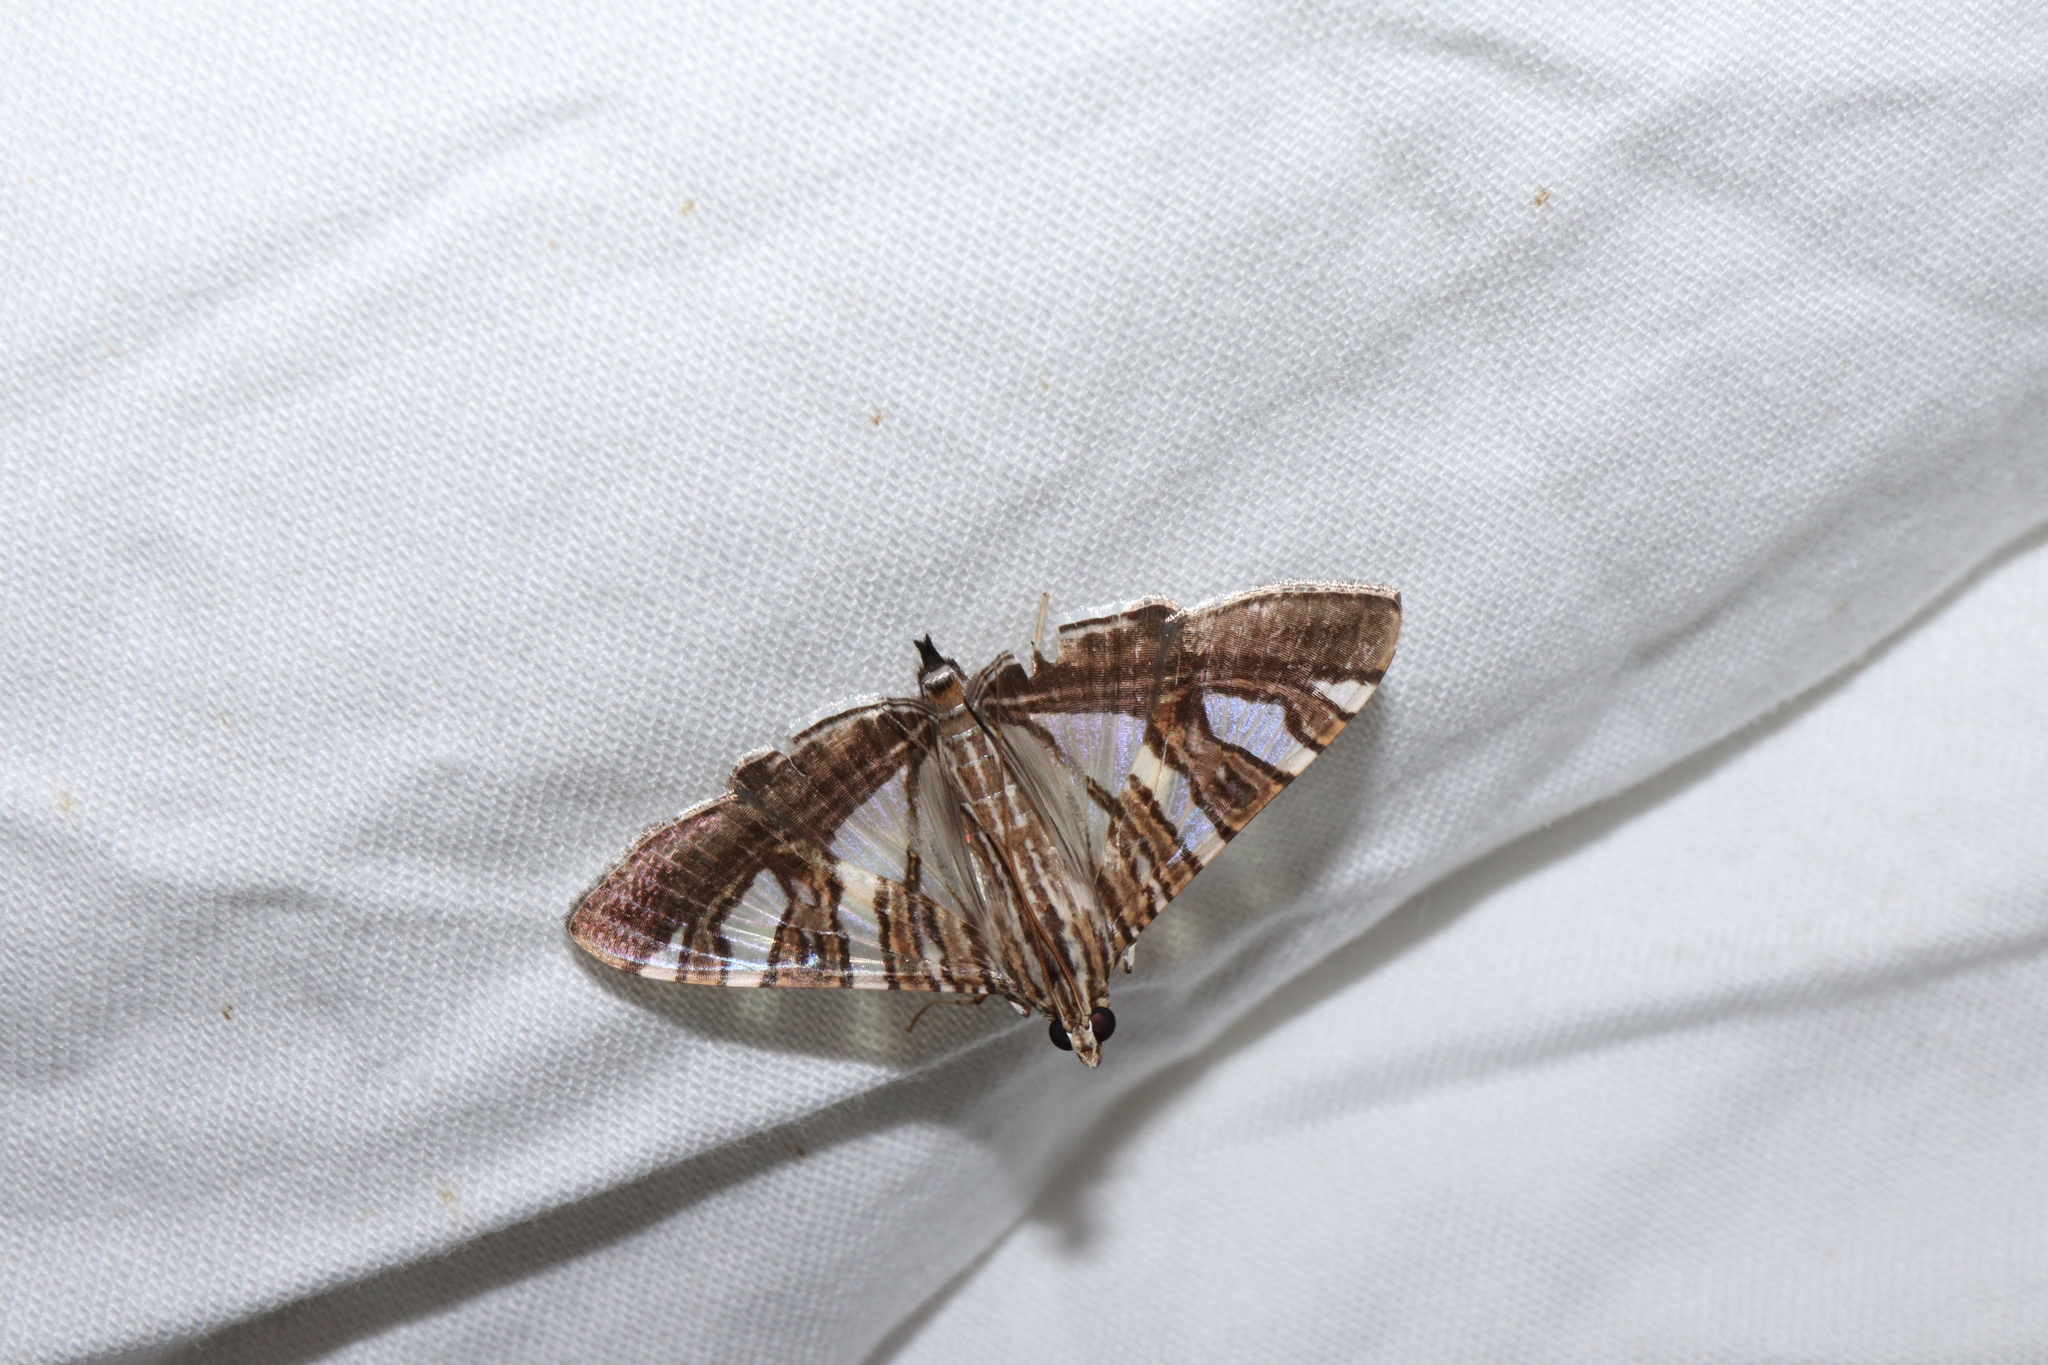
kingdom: Animalia
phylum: Arthropoda
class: Insecta
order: Lepidoptera
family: Crambidae
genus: Glyphodes
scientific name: Glyphodes stolalis
